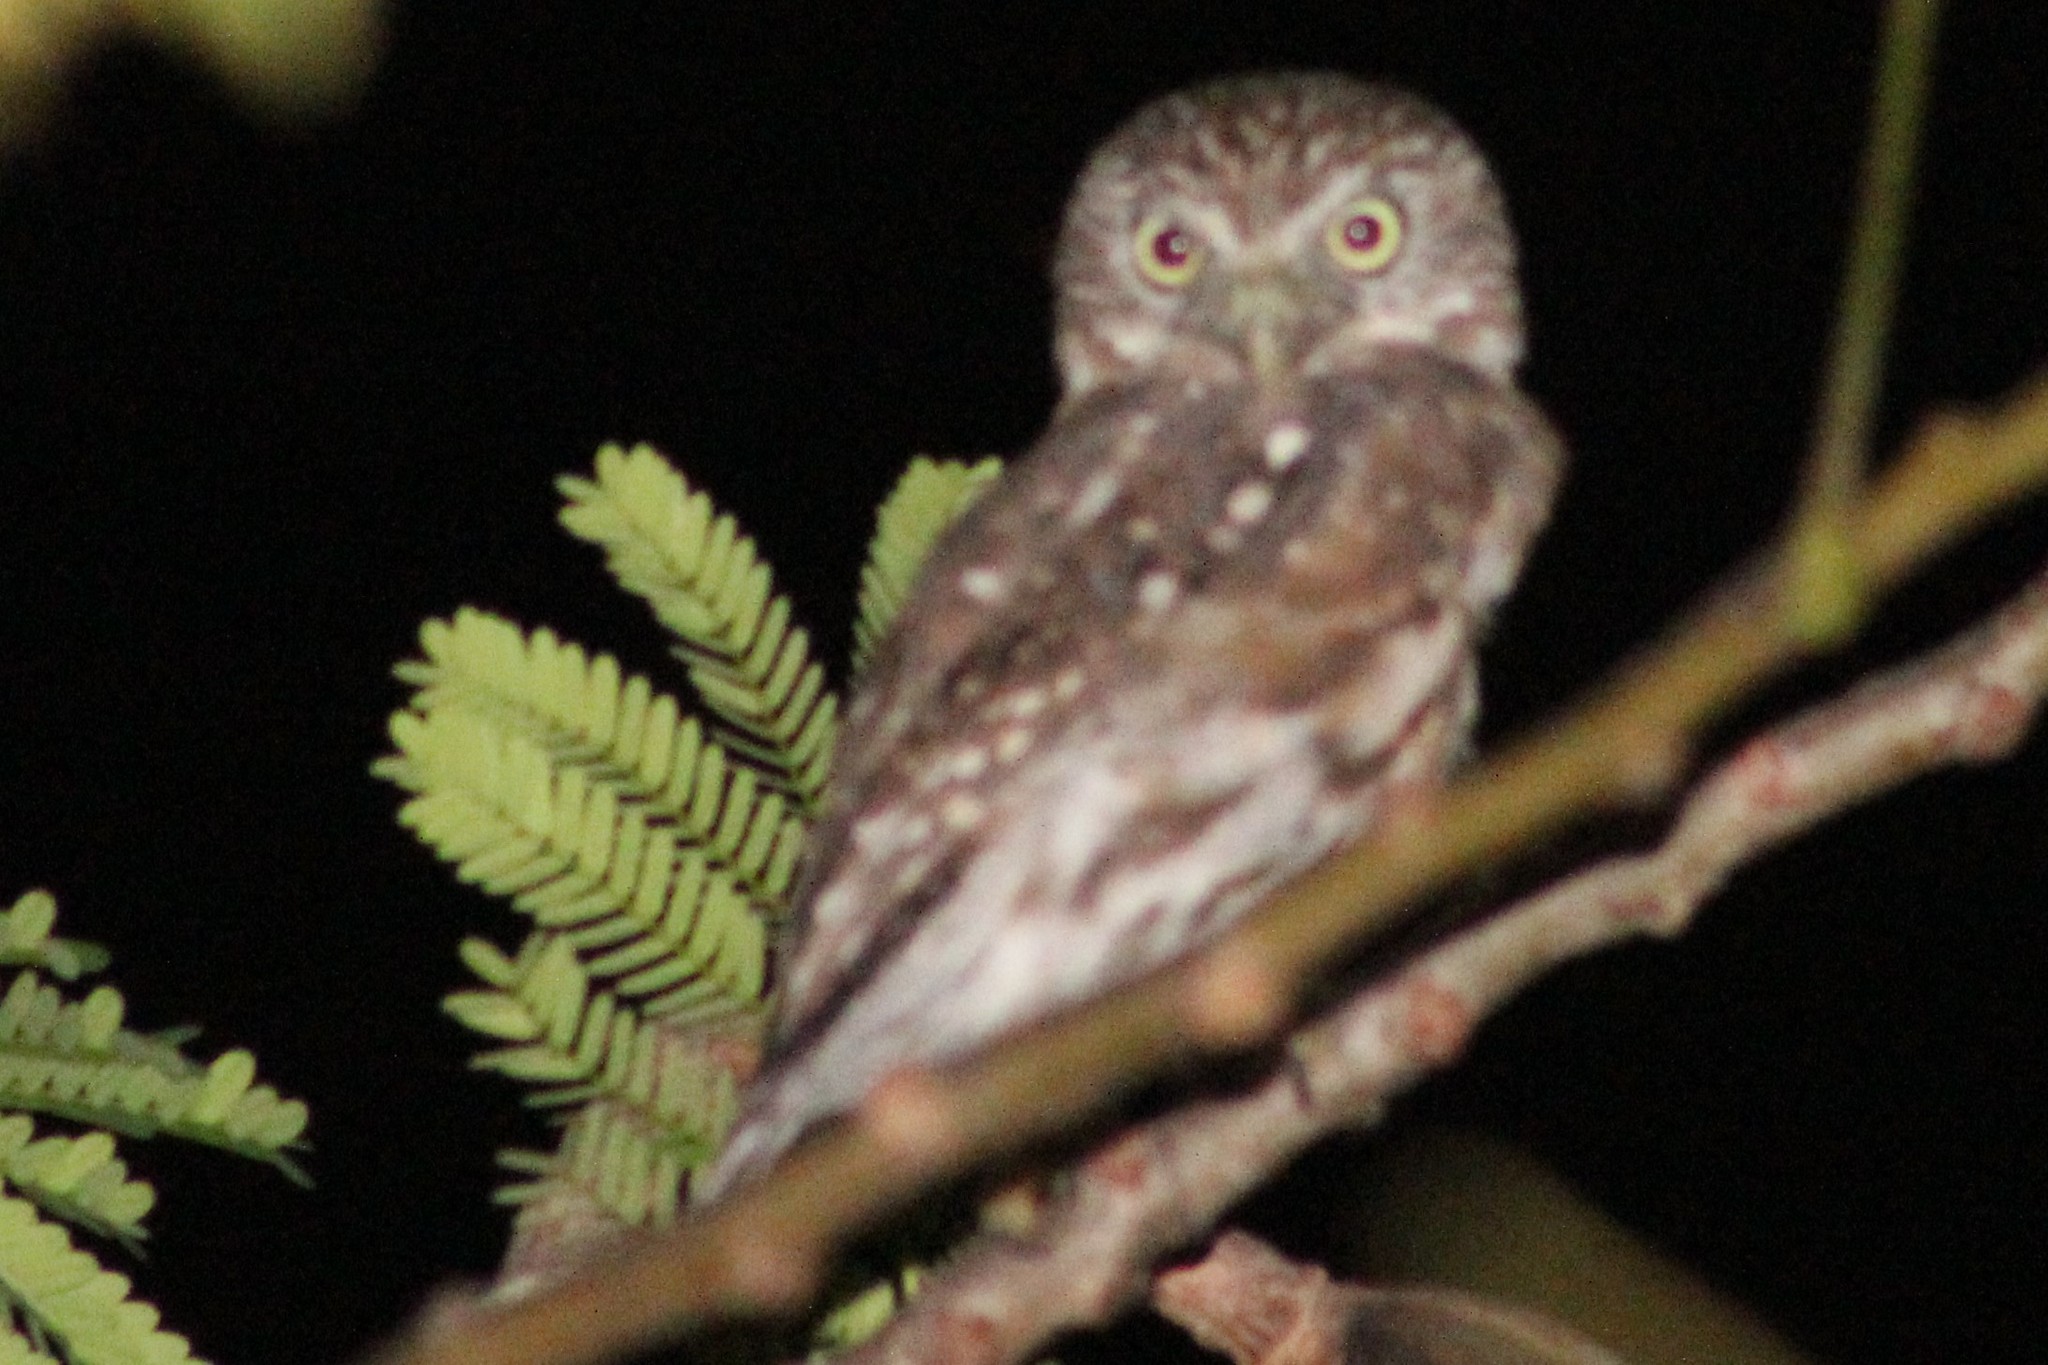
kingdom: Animalia
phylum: Chordata
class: Aves
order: Strigiformes
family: Strigidae
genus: Glaucidium
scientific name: Glaucidium peruanum
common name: Pacific pygmy owl
